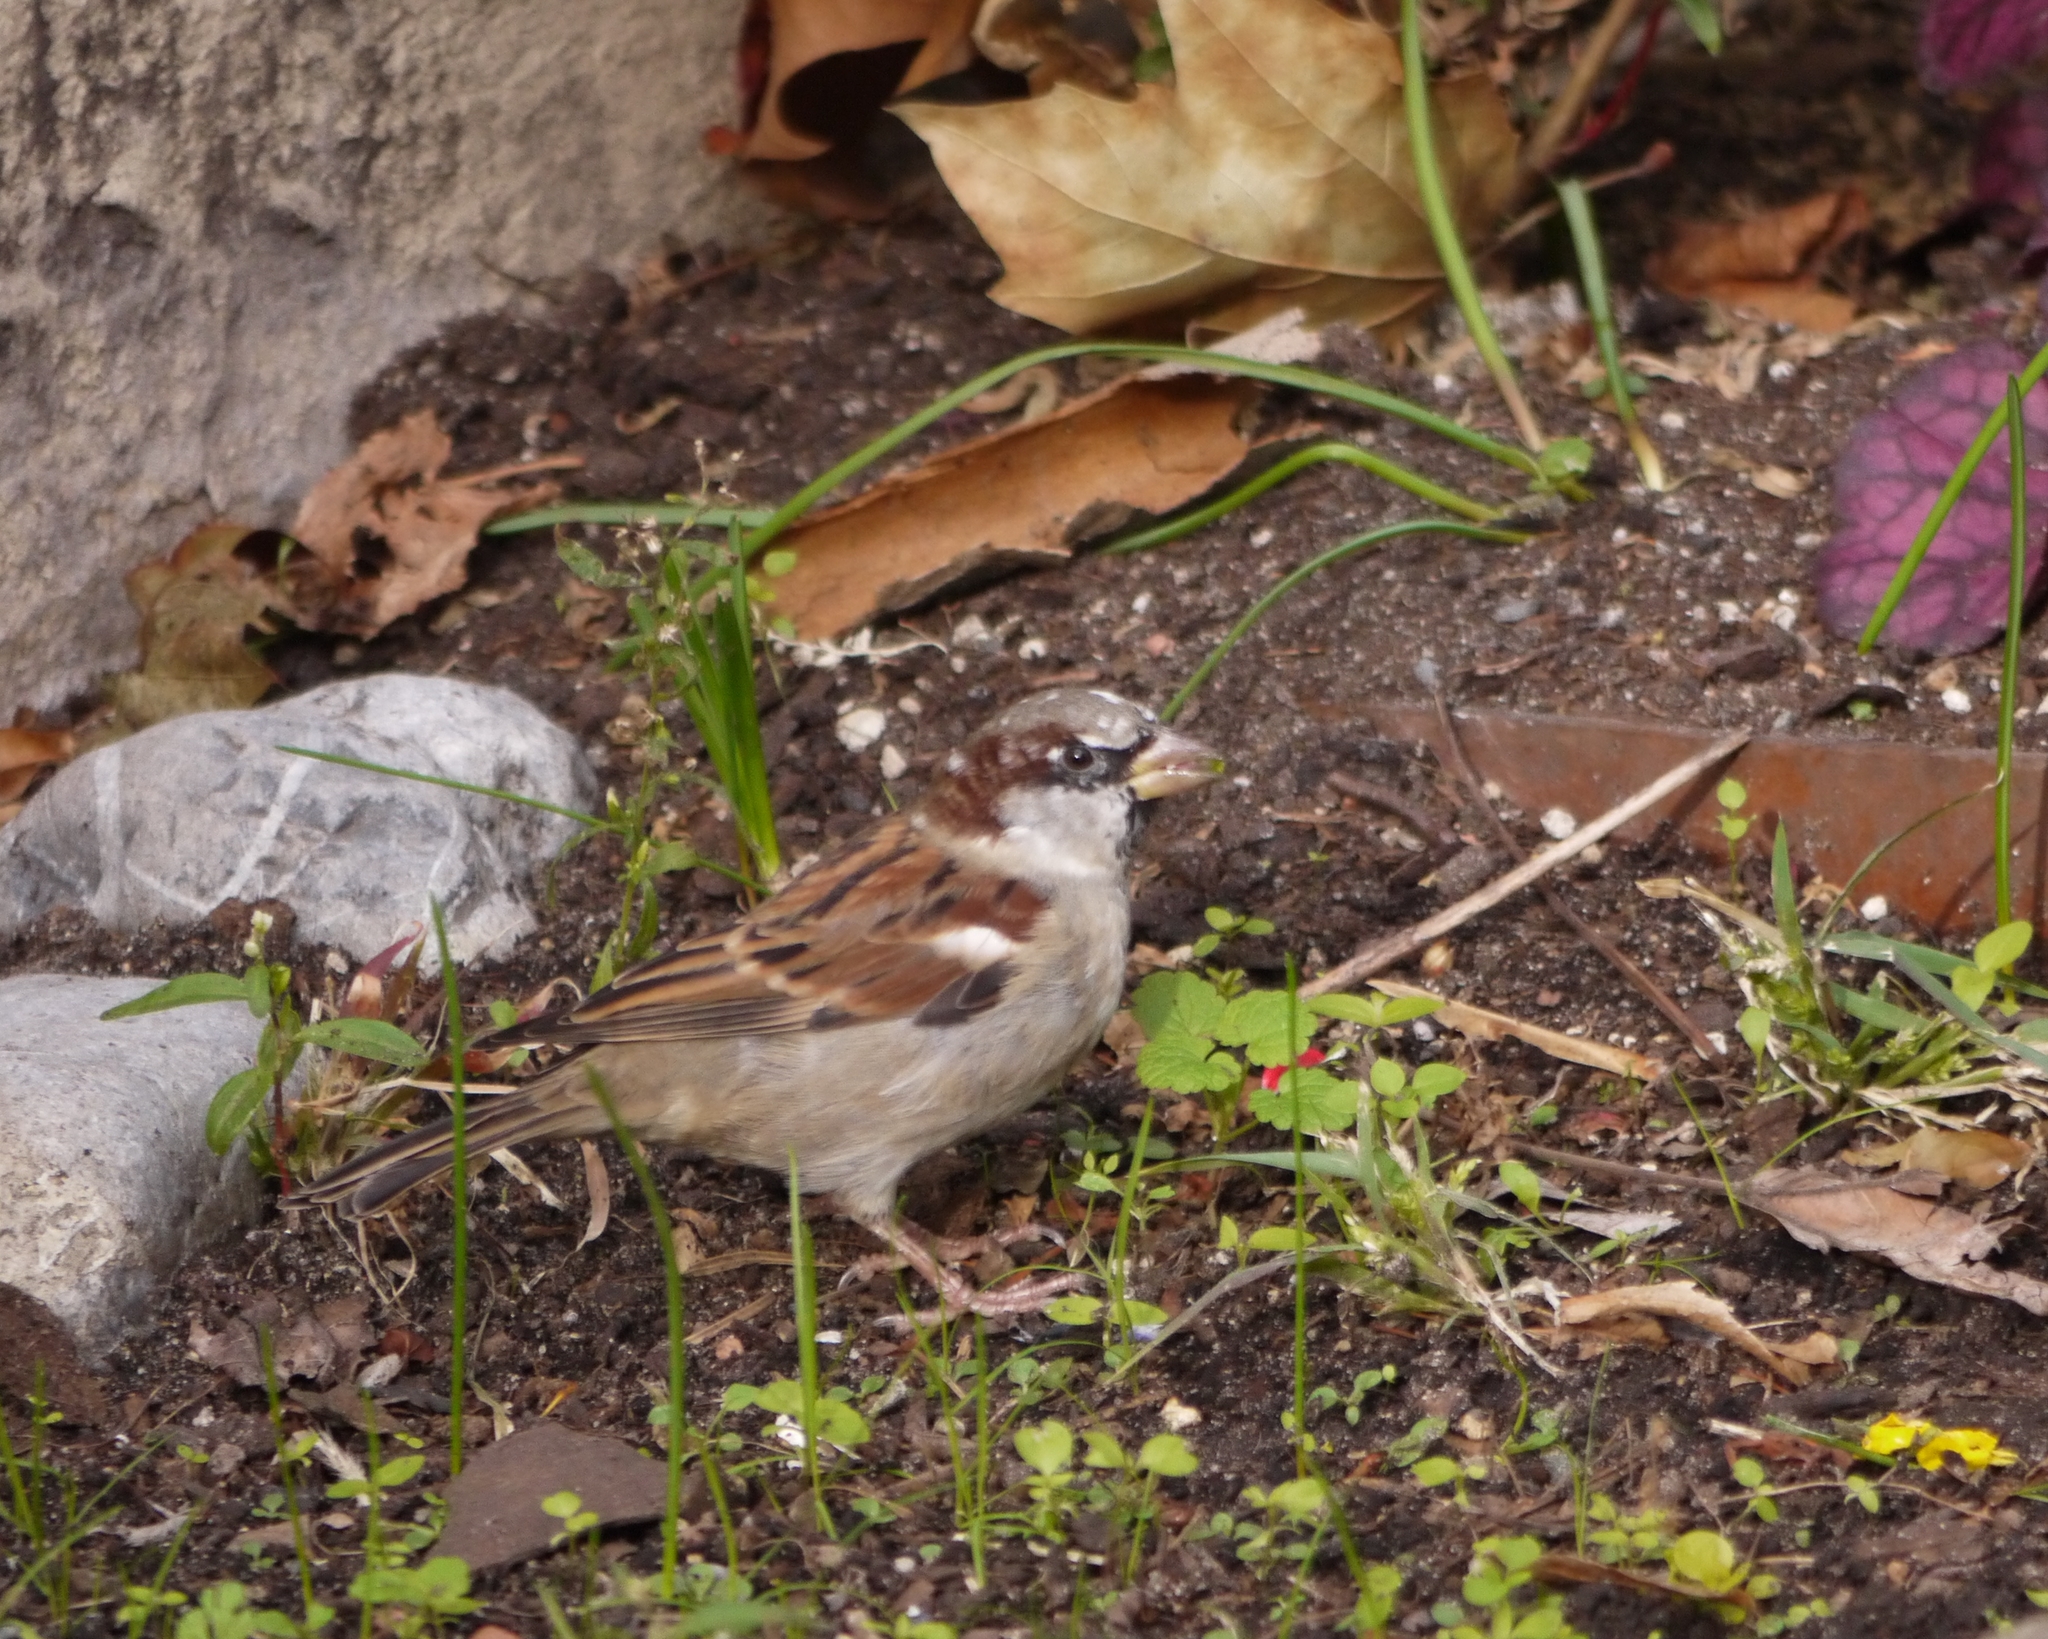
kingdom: Animalia
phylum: Chordata
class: Aves
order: Passeriformes
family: Passeridae
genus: Passer
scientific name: Passer domesticus
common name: House sparrow
